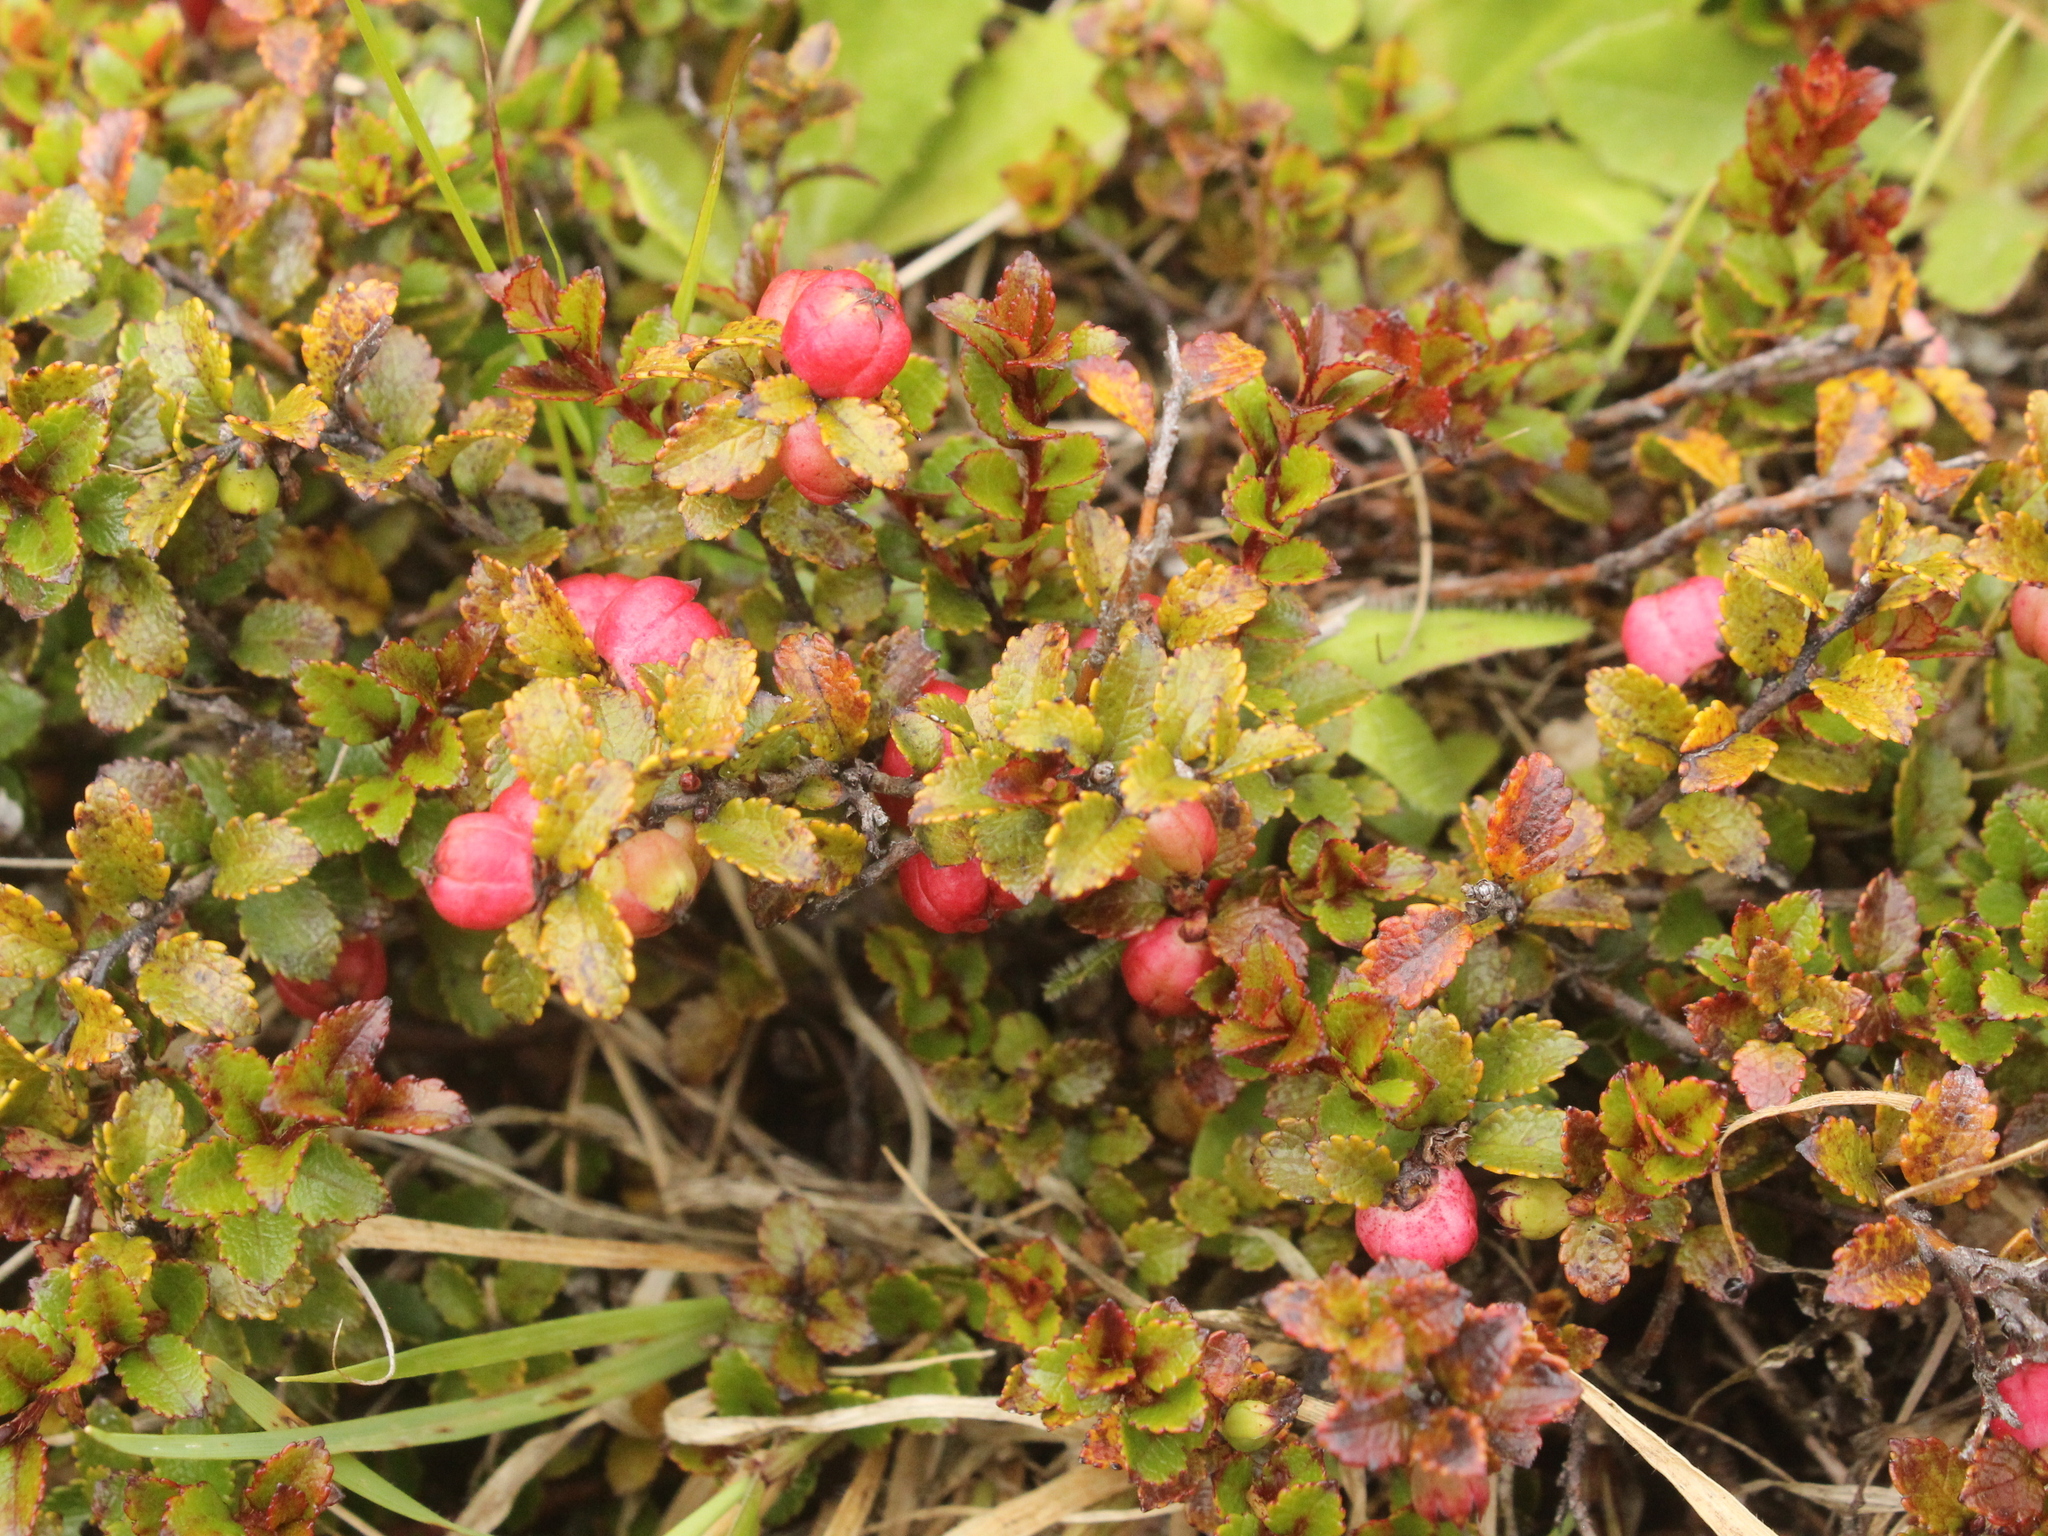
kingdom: Plantae
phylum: Tracheophyta
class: Magnoliopsida
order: Ericales
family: Ericaceae
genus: Gaultheria
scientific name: Gaultheria depressa
